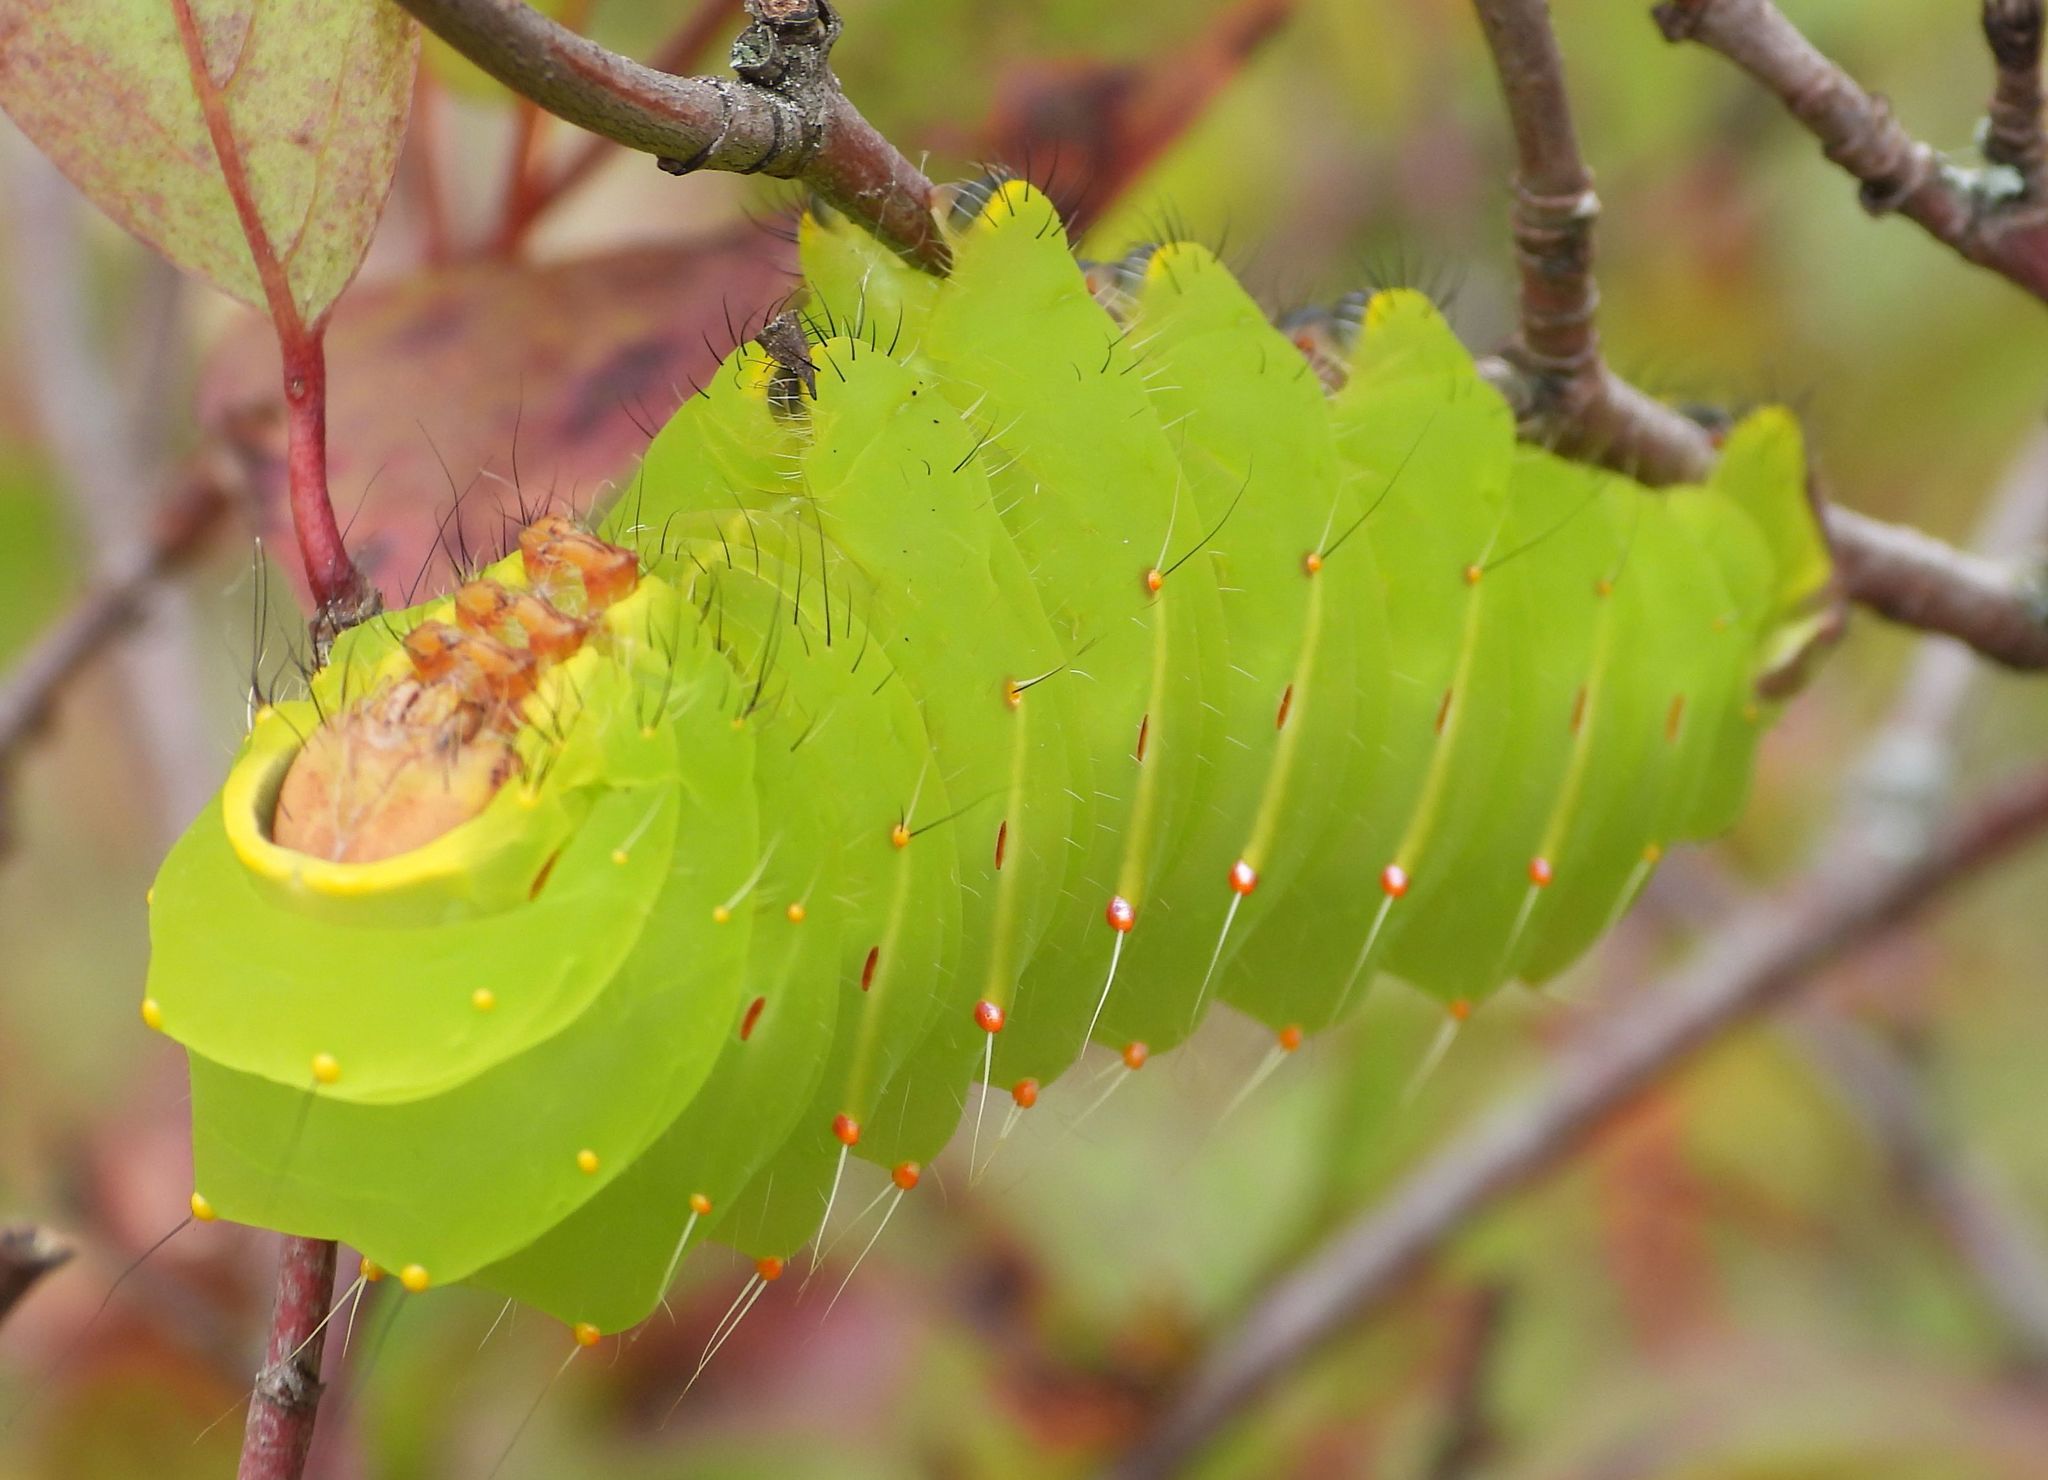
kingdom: Animalia
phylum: Arthropoda
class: Insecta
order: Lepidoptera
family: Saturniidae
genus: Antheraea
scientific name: Antheraea polyphemus
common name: Polyphemus moth
